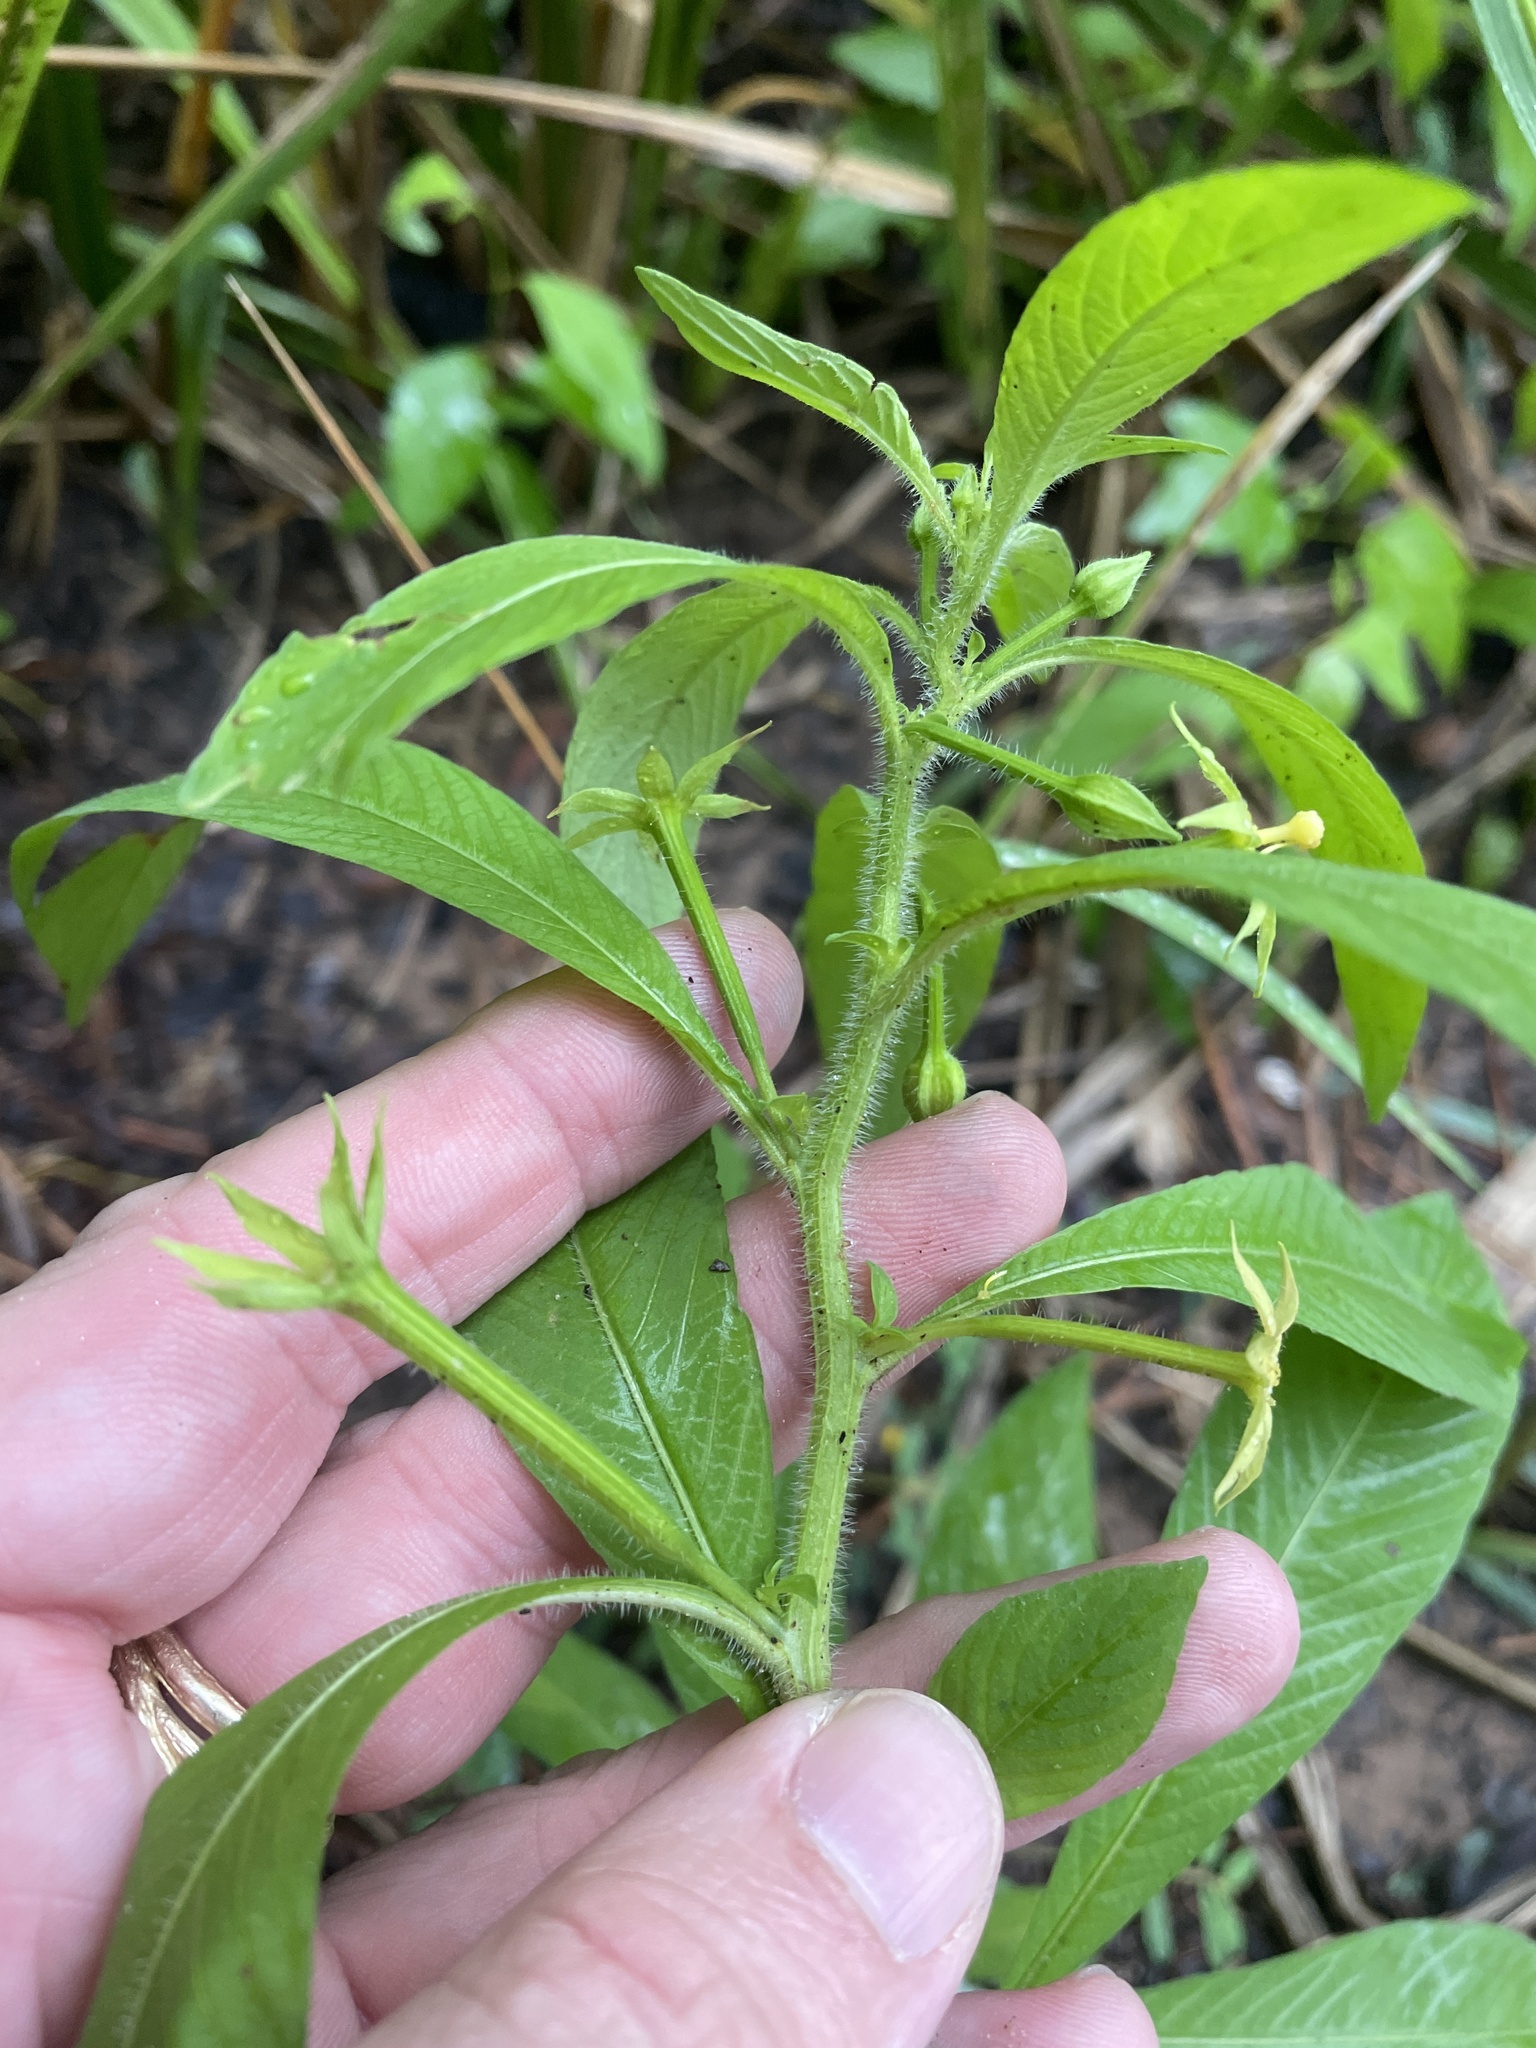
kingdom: Plantae
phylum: Tracheophyta
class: Magnoliopsida
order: Myrtales
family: Onagraceae
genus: Ludwigia
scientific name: Ludwigia leptocarpa
